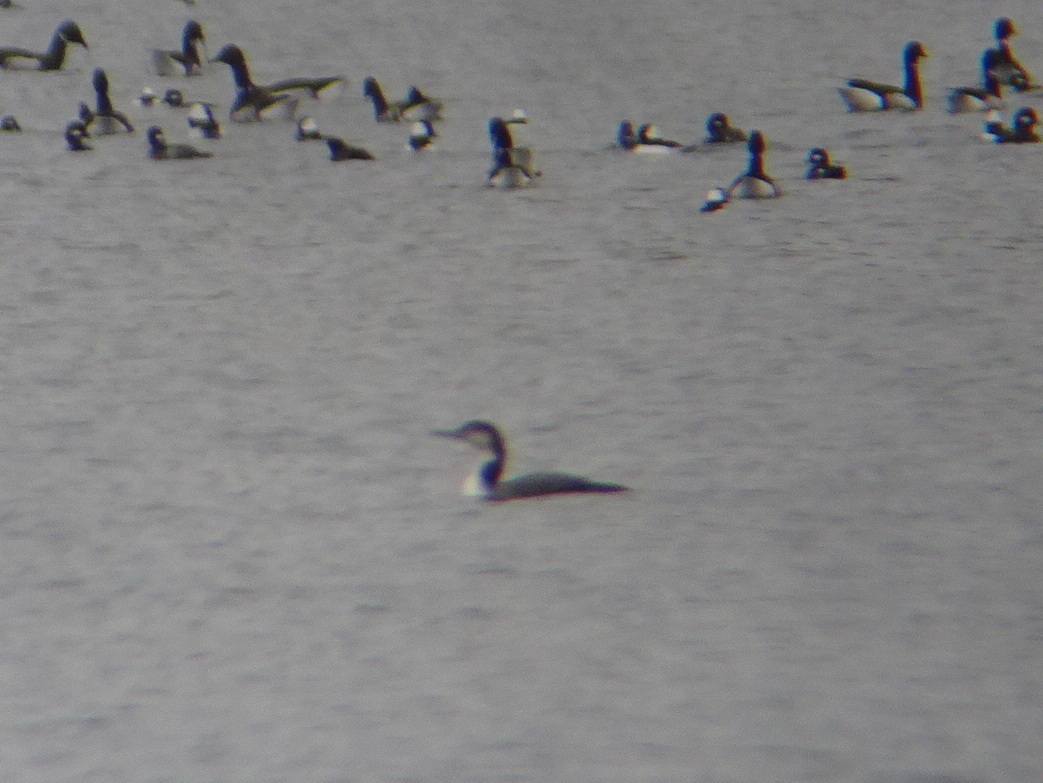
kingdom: Animalia
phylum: Chordata
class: Aves
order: Gaviiformes
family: Gaviidae
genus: Gavia
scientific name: Gavia immer
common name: Common loon
